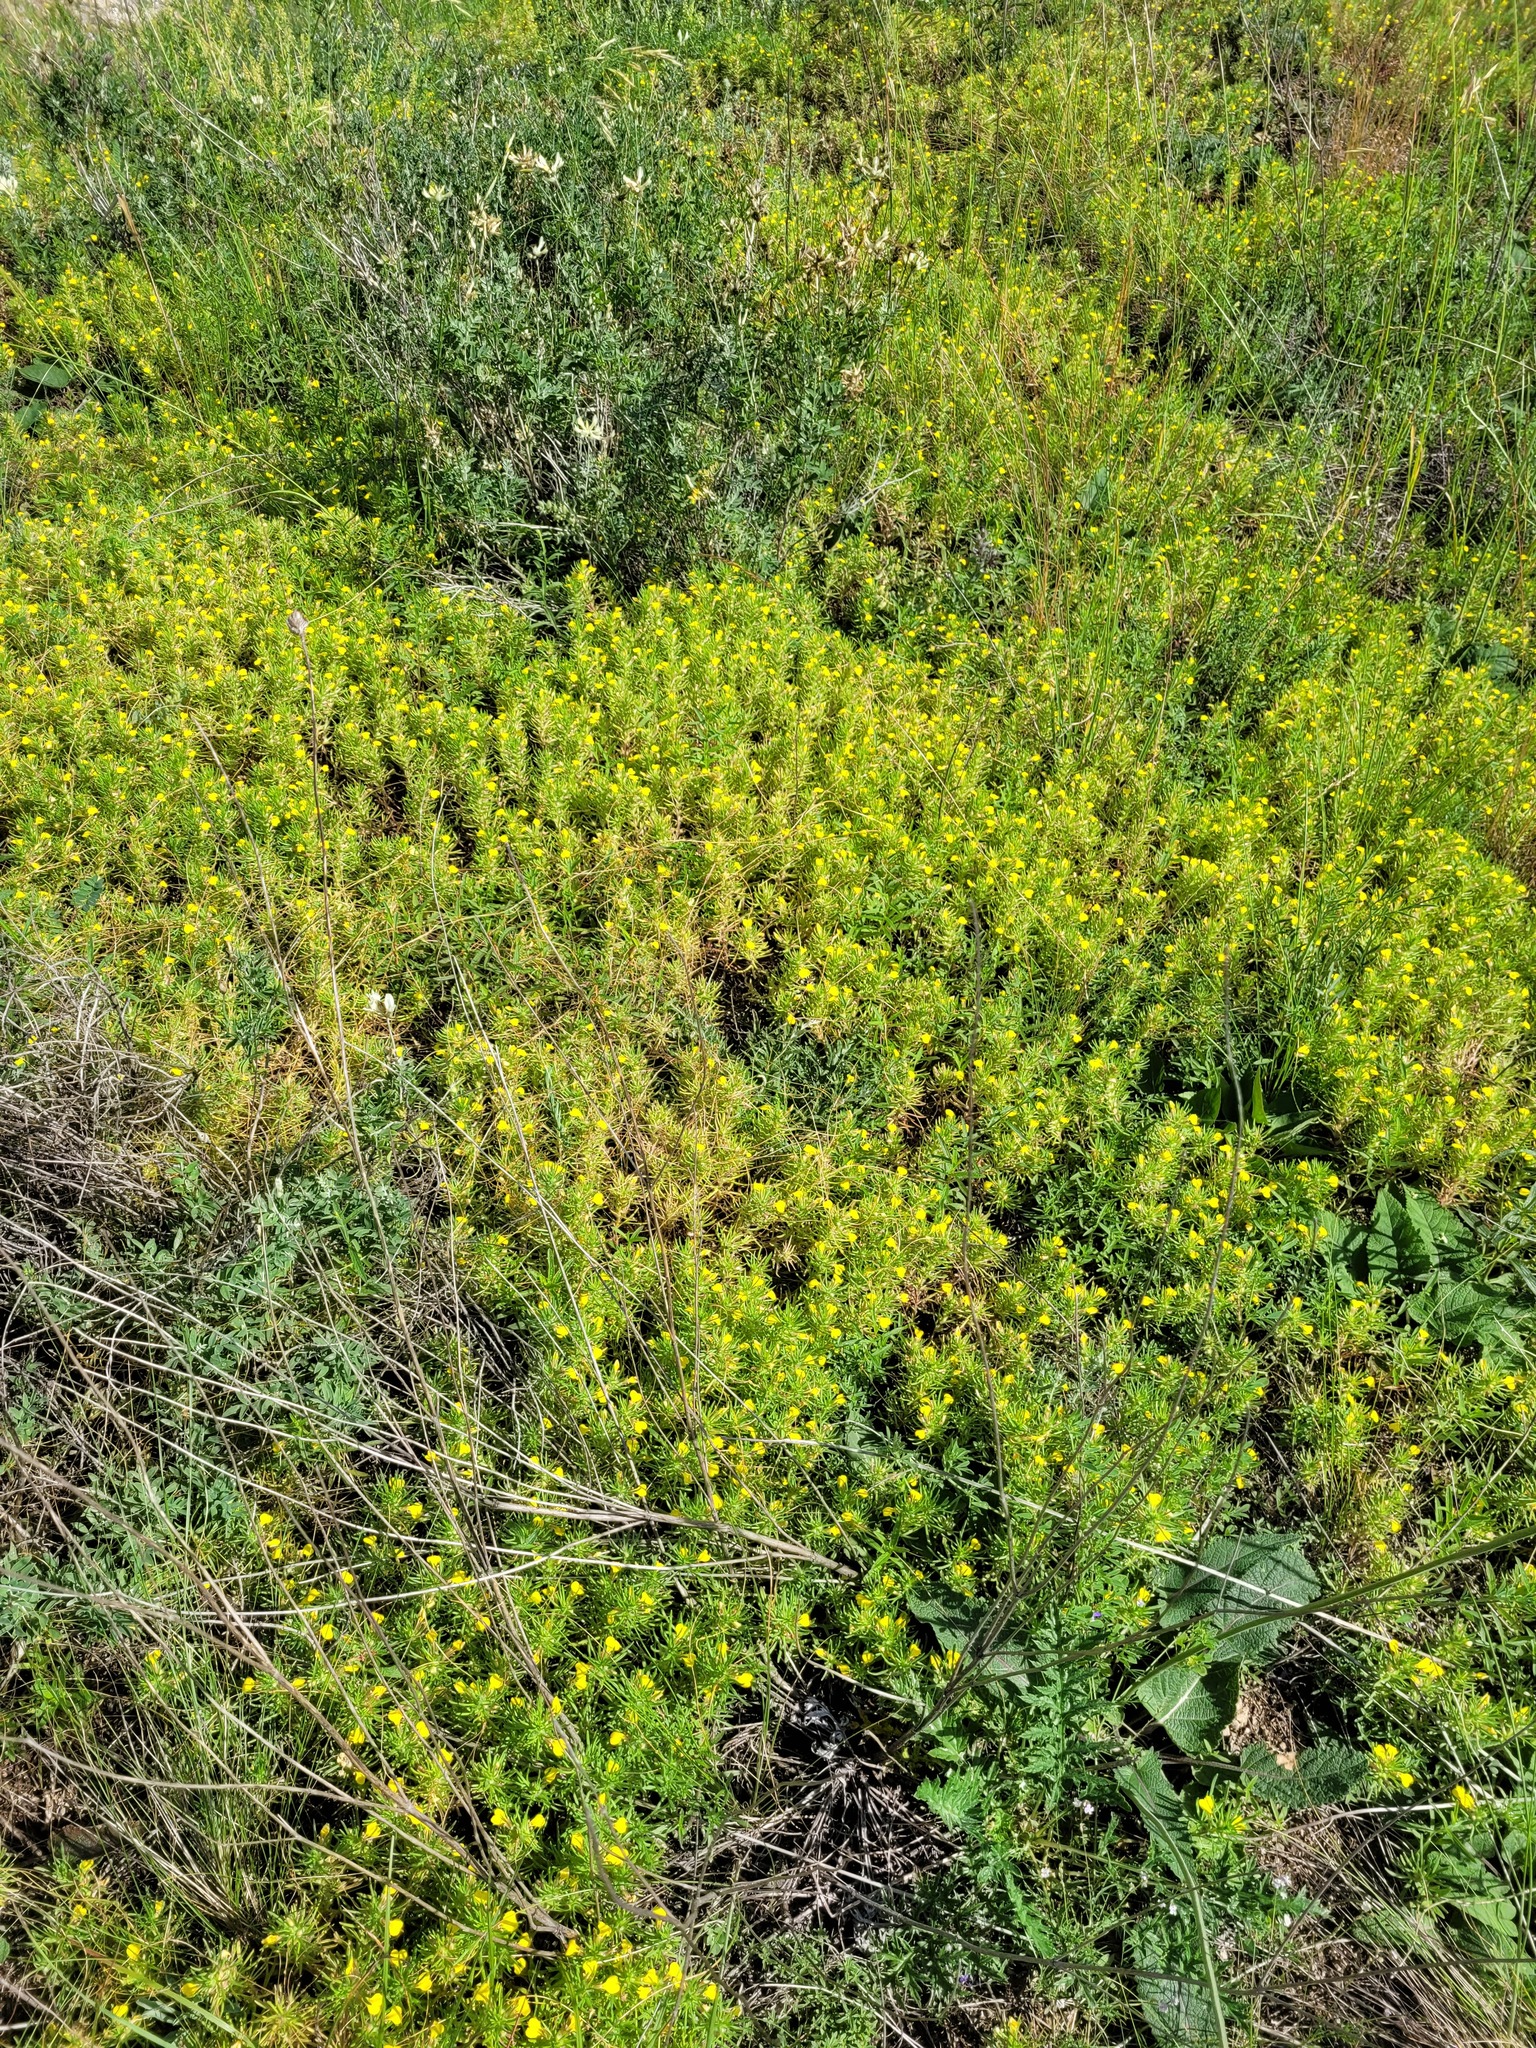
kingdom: Plantae
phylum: Tracheophyta
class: Magnoliopsida
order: Lamiales
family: Lamiaceae
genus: Ajuga
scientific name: Ajuga chamaepitys
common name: Ground-pine
